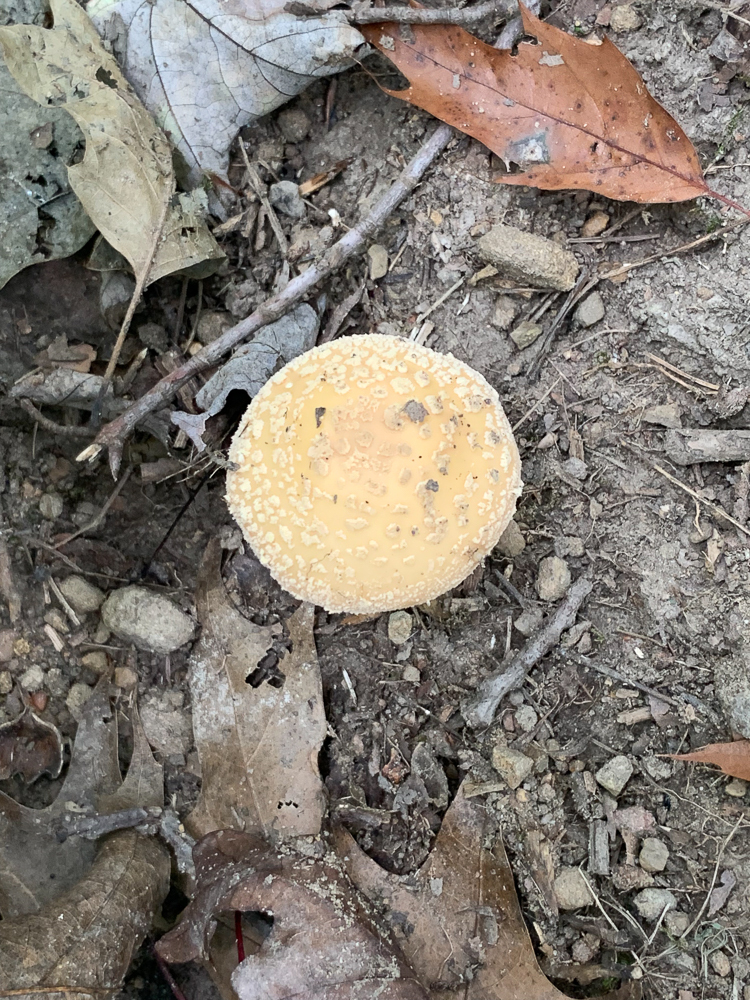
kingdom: Fungi
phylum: Basidiomycota
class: Agaricomycetes
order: Agaricales
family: Amanitaceae
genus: Amanita
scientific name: Amanita muscaria
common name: Fly agaric
